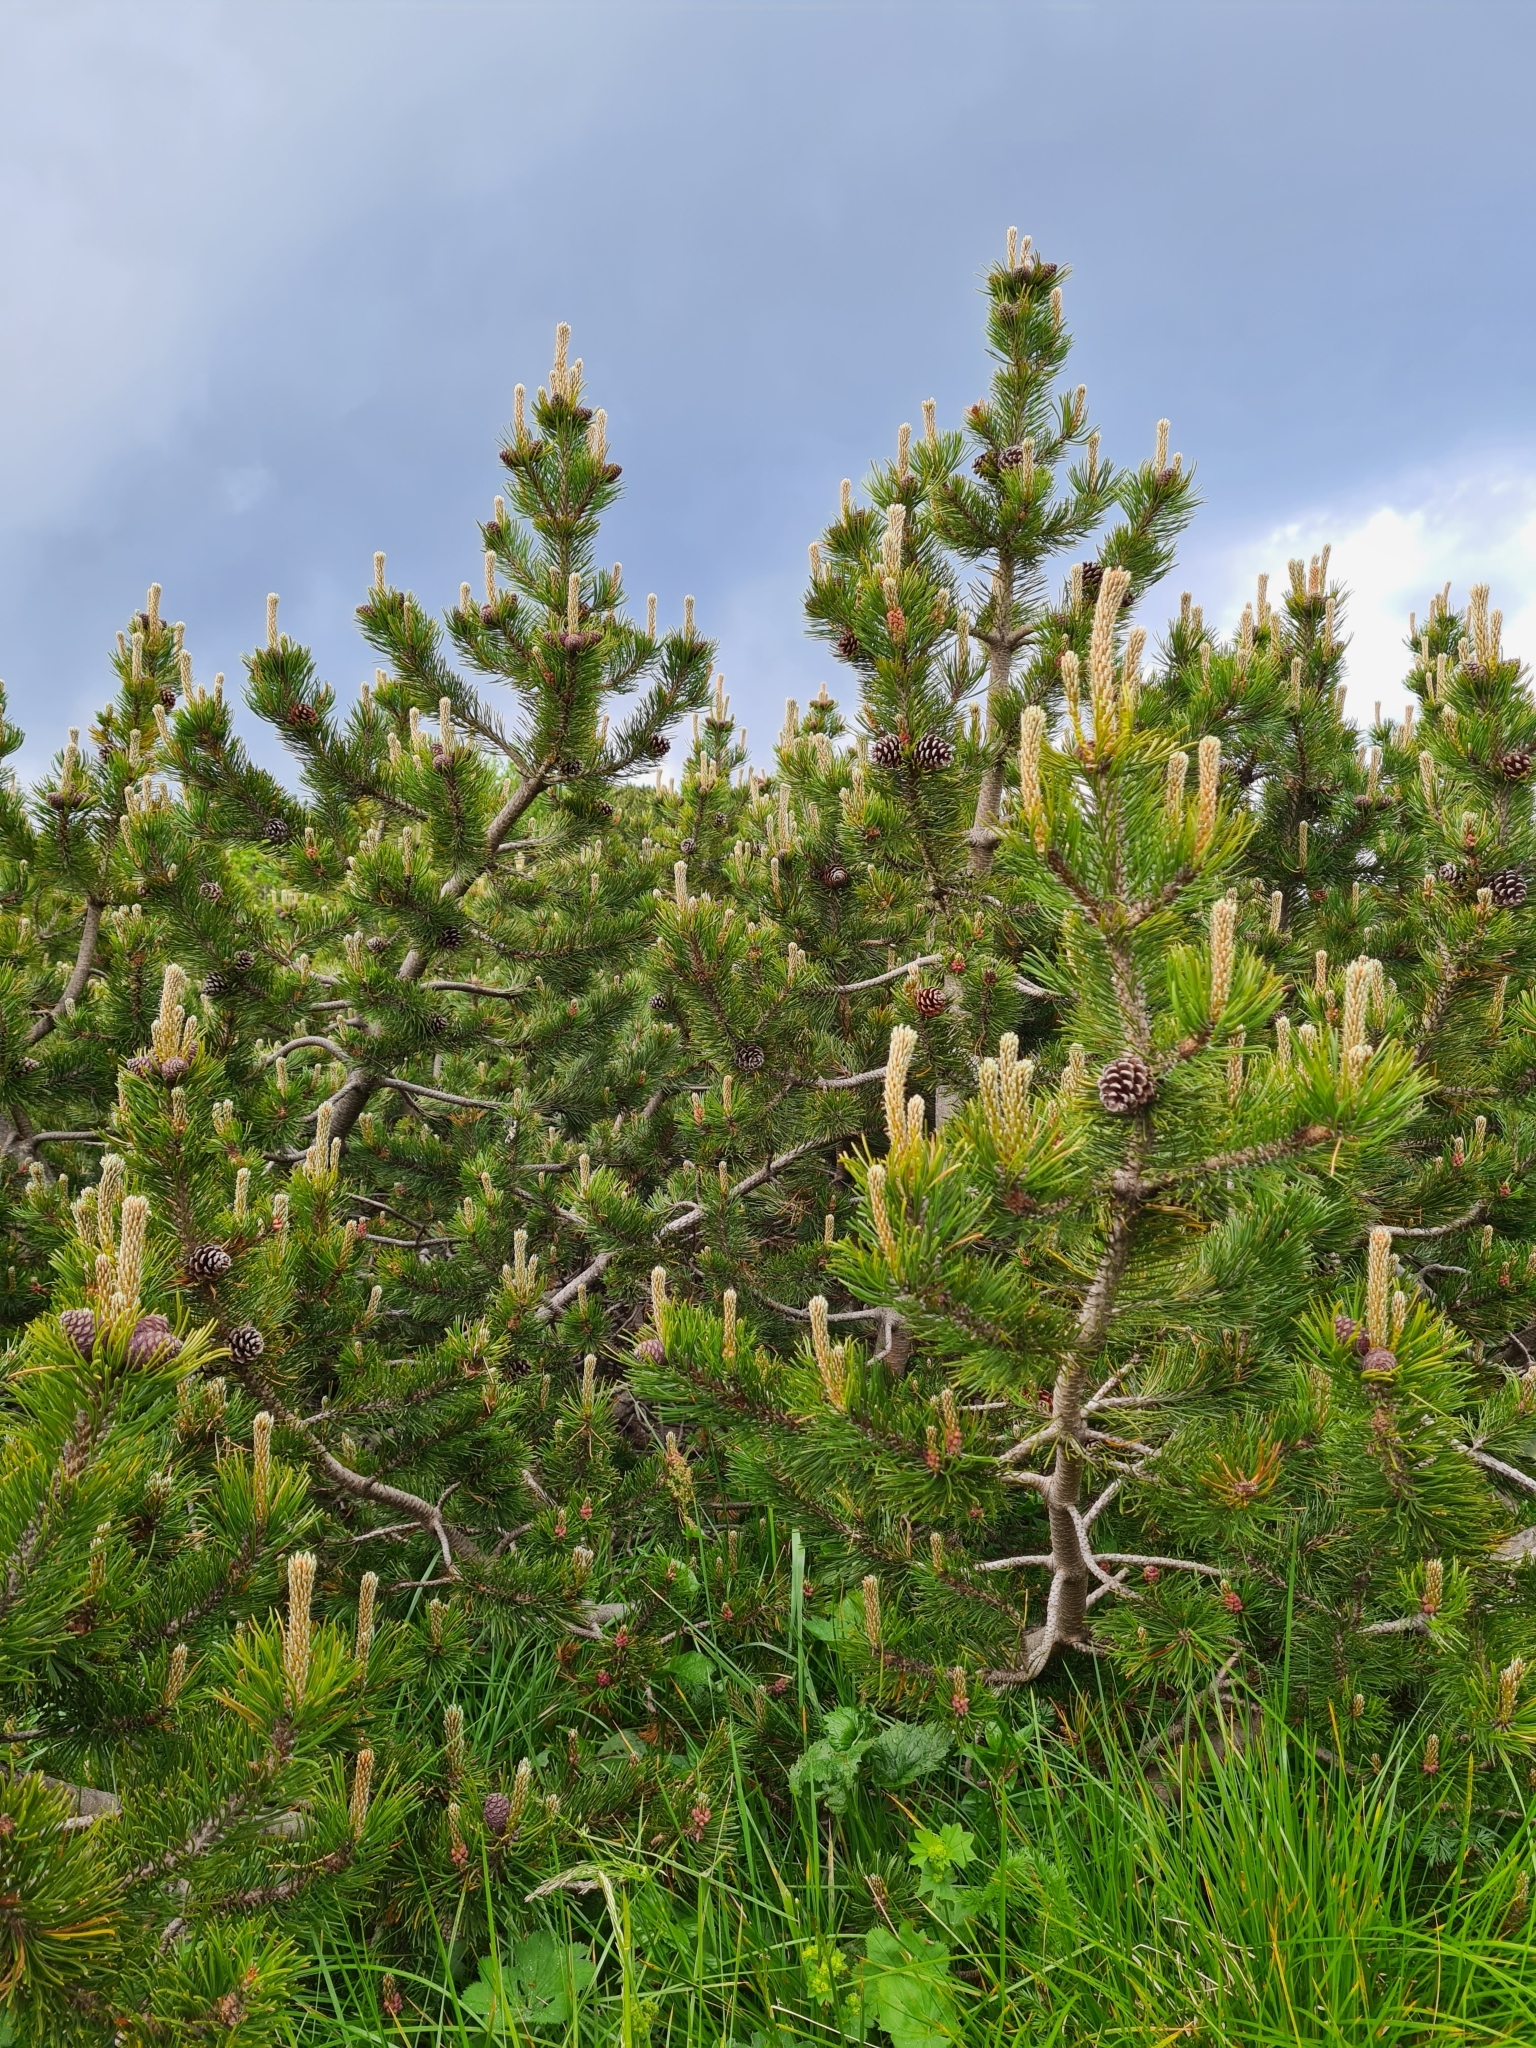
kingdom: Plantae
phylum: Tracheophyta
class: Pinopsida
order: Pinales
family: Pinaceae
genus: Pinus
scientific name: Pinus mugo
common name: Mugo pine
